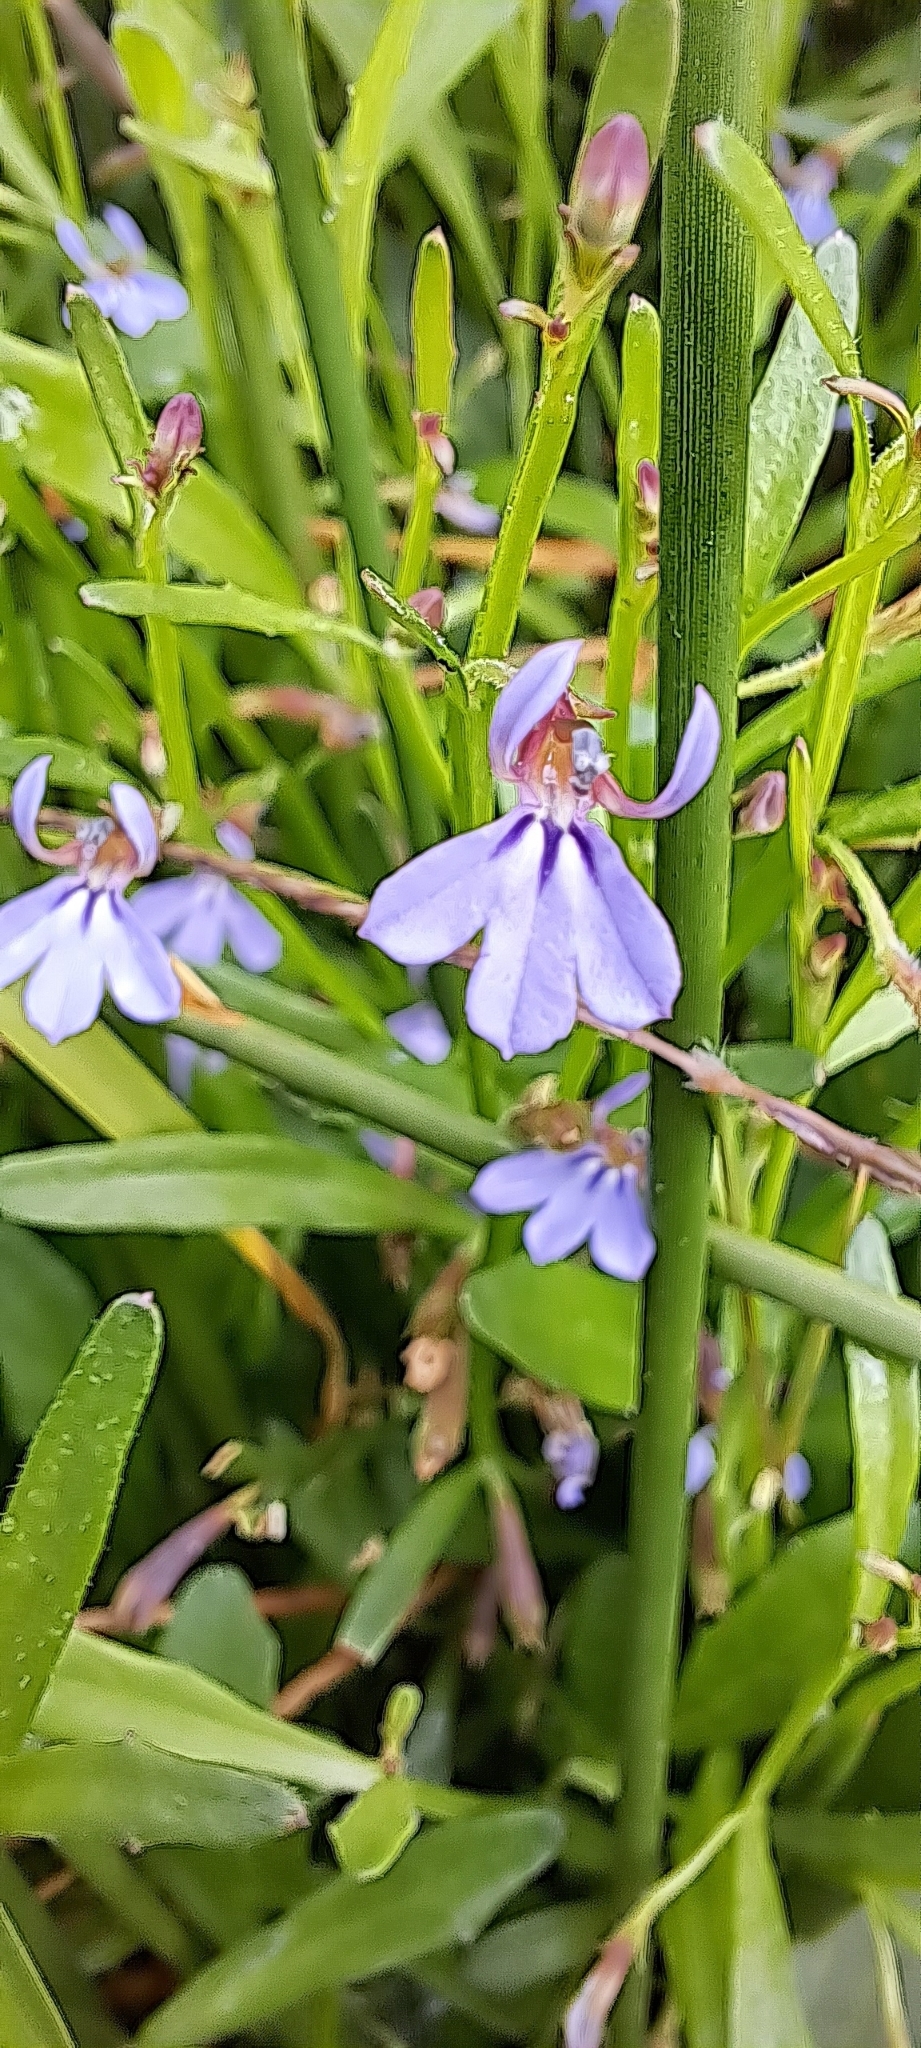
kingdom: Plantae
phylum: Tracheophyta
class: Magnoliopsida
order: Asterales
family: Campanulaceae
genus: Lobelia
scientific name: Lobelia anceps
